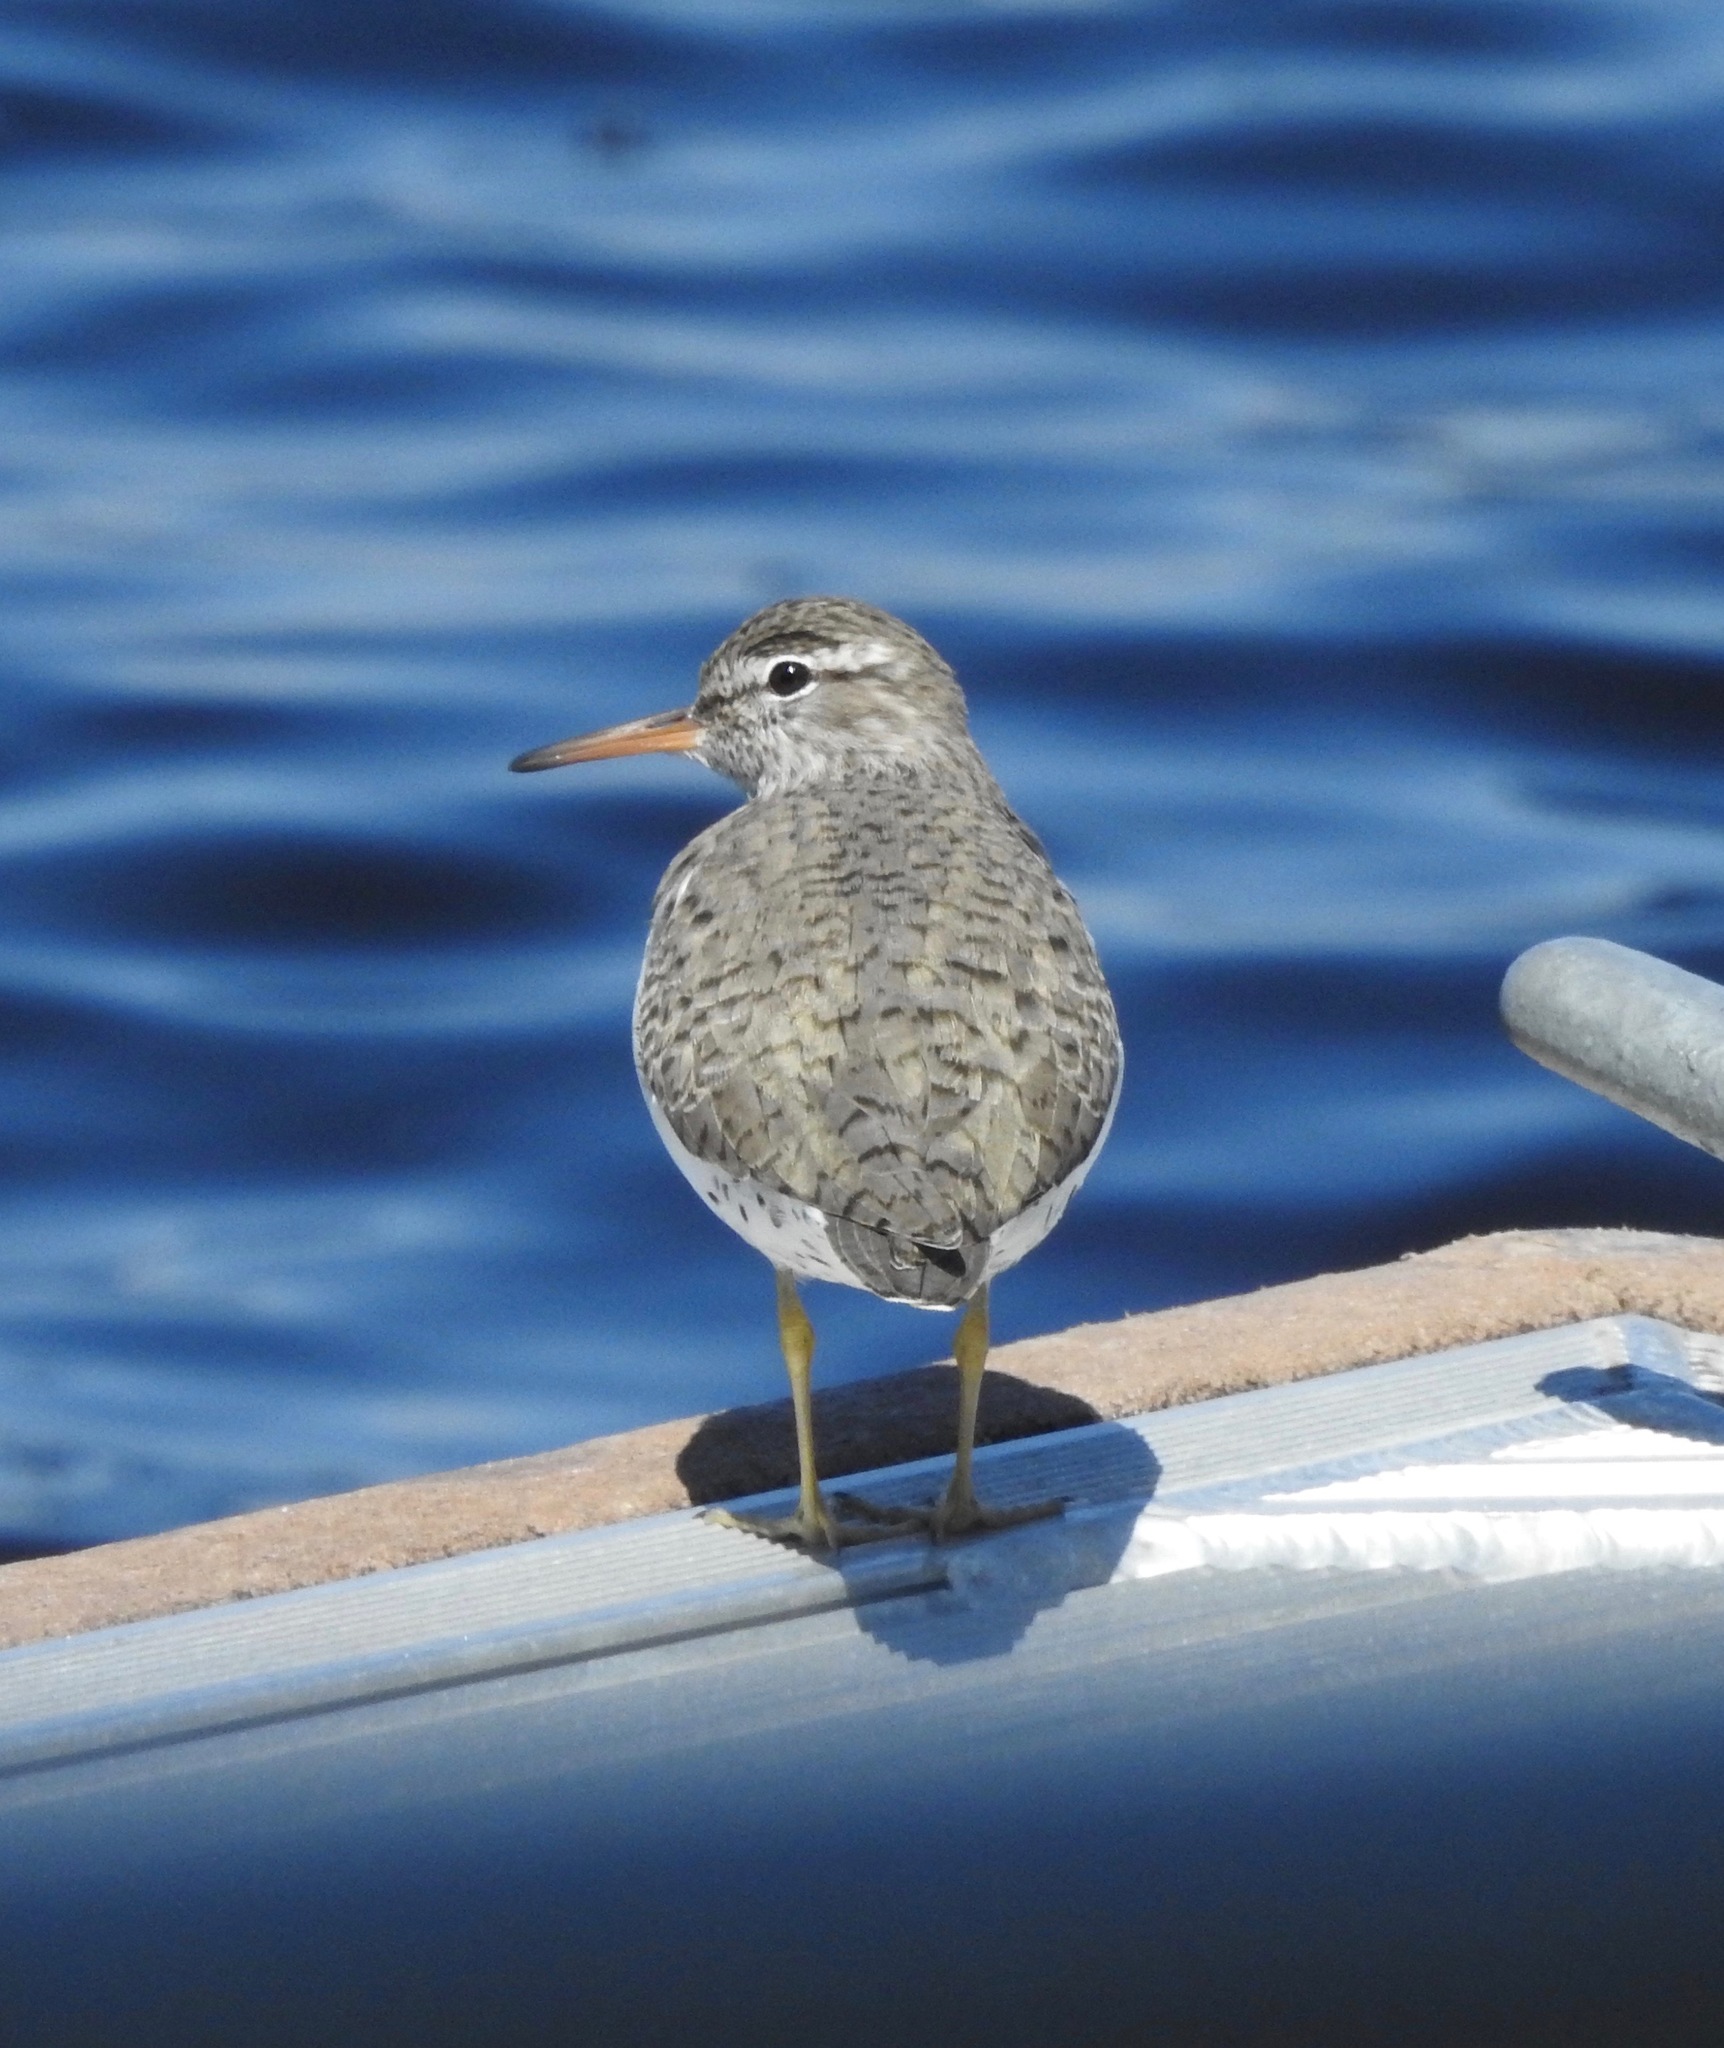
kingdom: Animalia
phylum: Chordata
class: Aves
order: Charadriiformes
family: Scolopacidae
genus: Actitis
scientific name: Actitis macularius
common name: Spotted sandpiper
